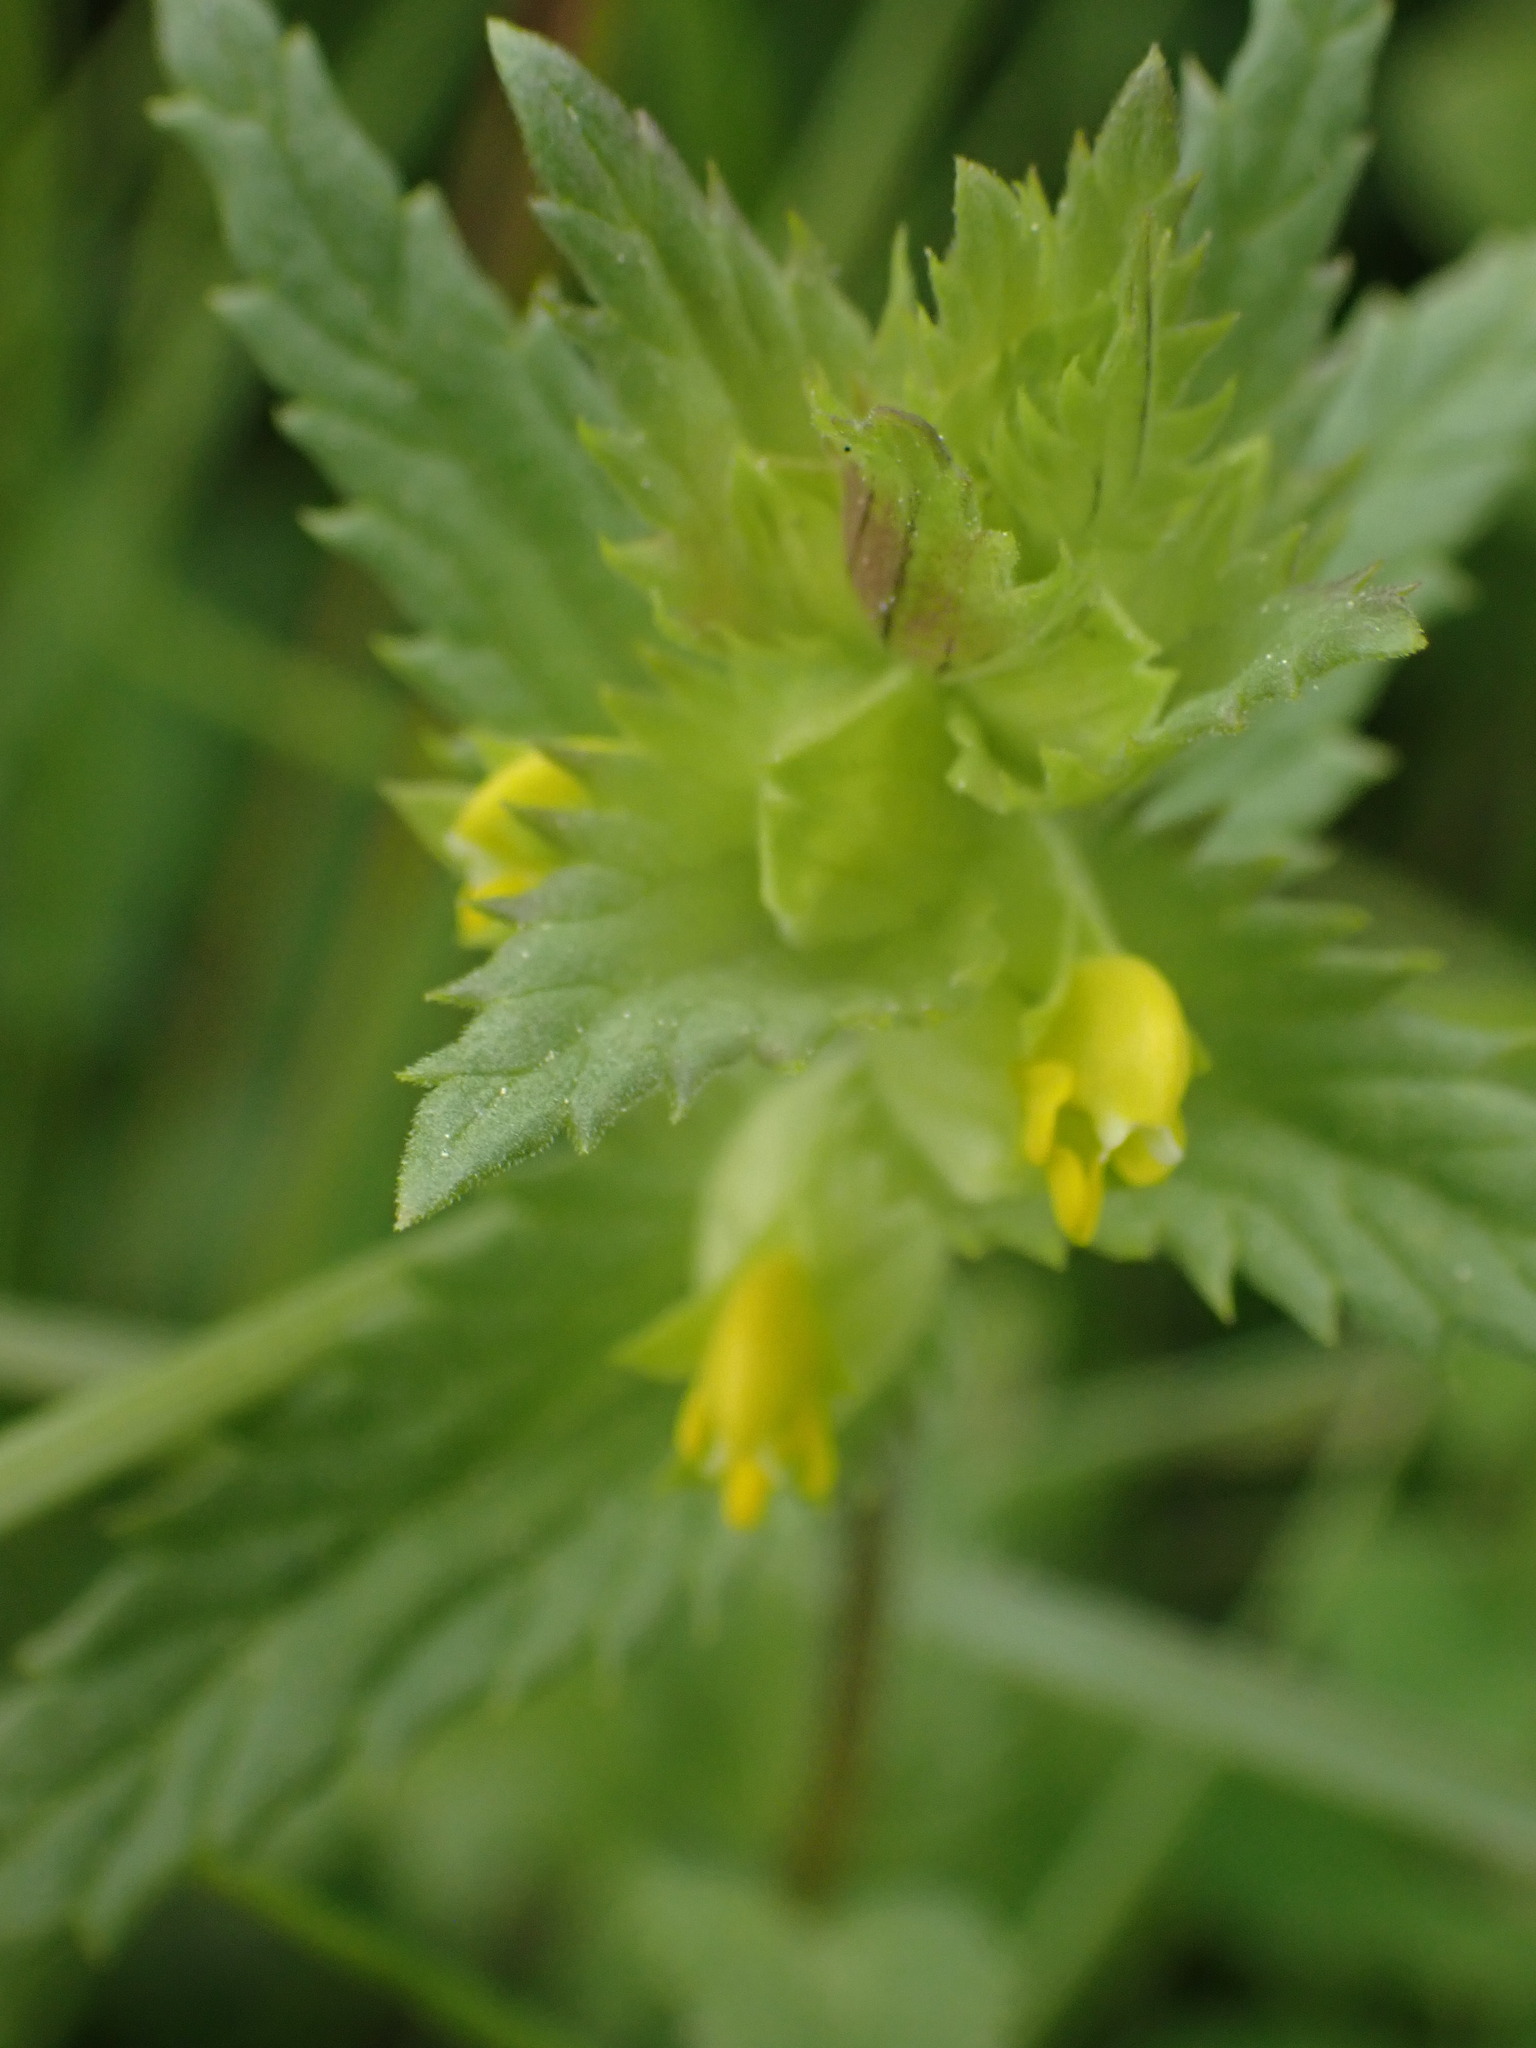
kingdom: Plantae
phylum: Tracheophyta
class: Magnoliopsida
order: Lamiales
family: Orobanchaceae
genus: Rhinanthus
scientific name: Rhinanthus groenlandicus
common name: Little yellow rattle
